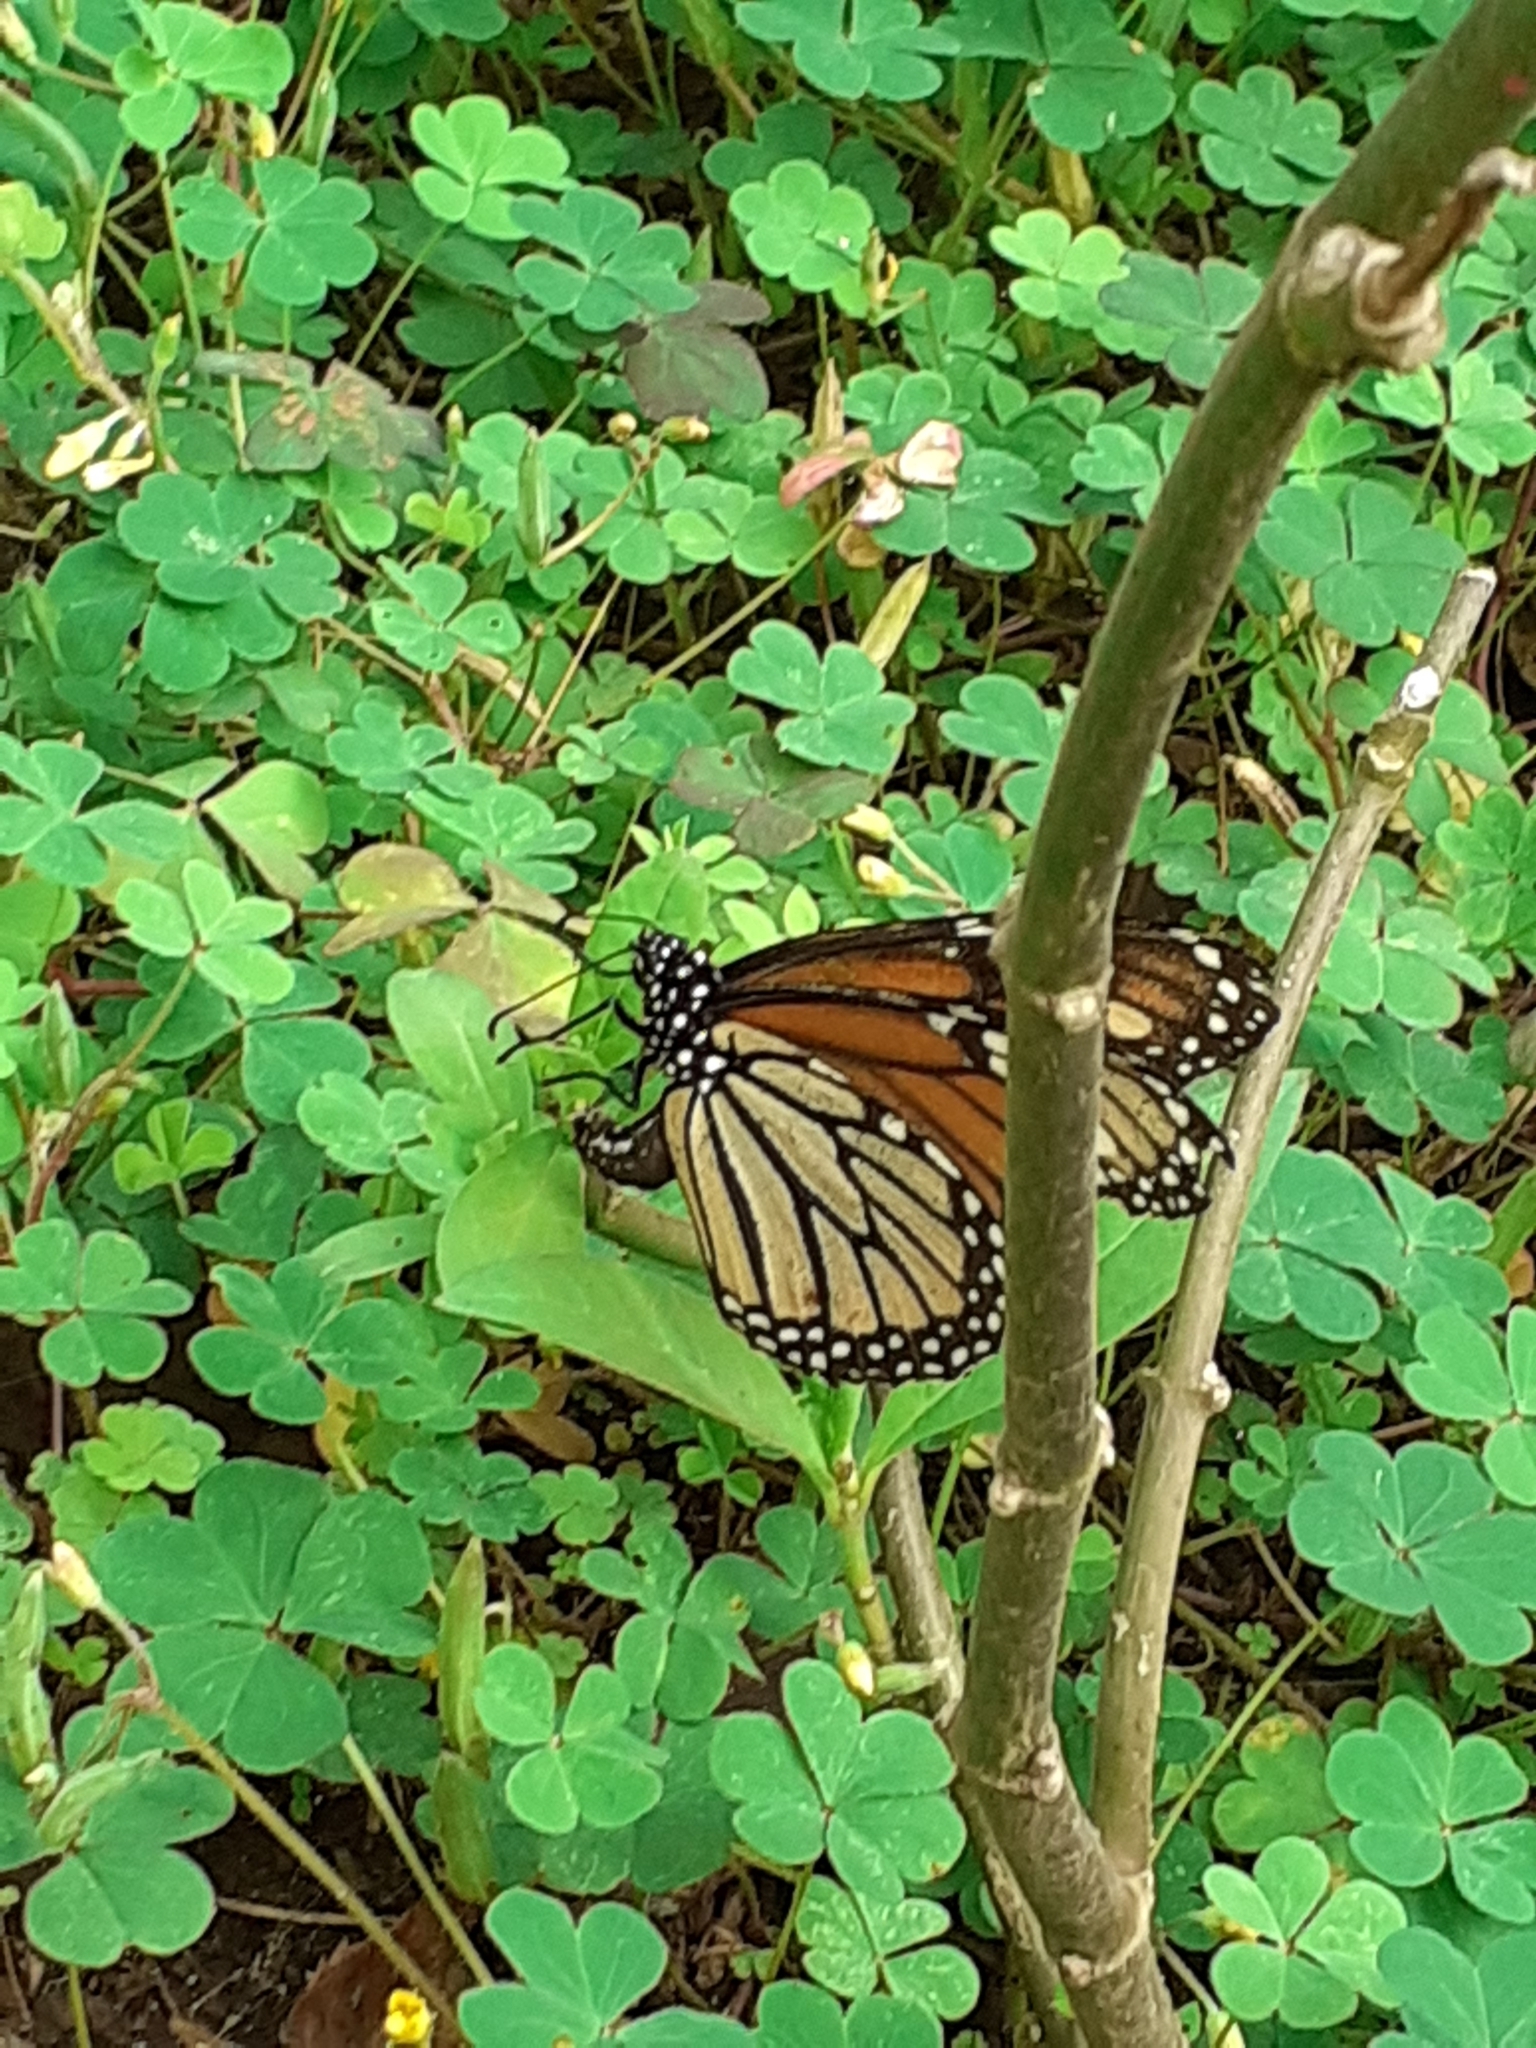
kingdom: Animalia
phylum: Arthropoda
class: Insecta
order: Lepidoptera
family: Nymphalidae
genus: Danaus
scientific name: Danaus plexippus
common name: Monarch
